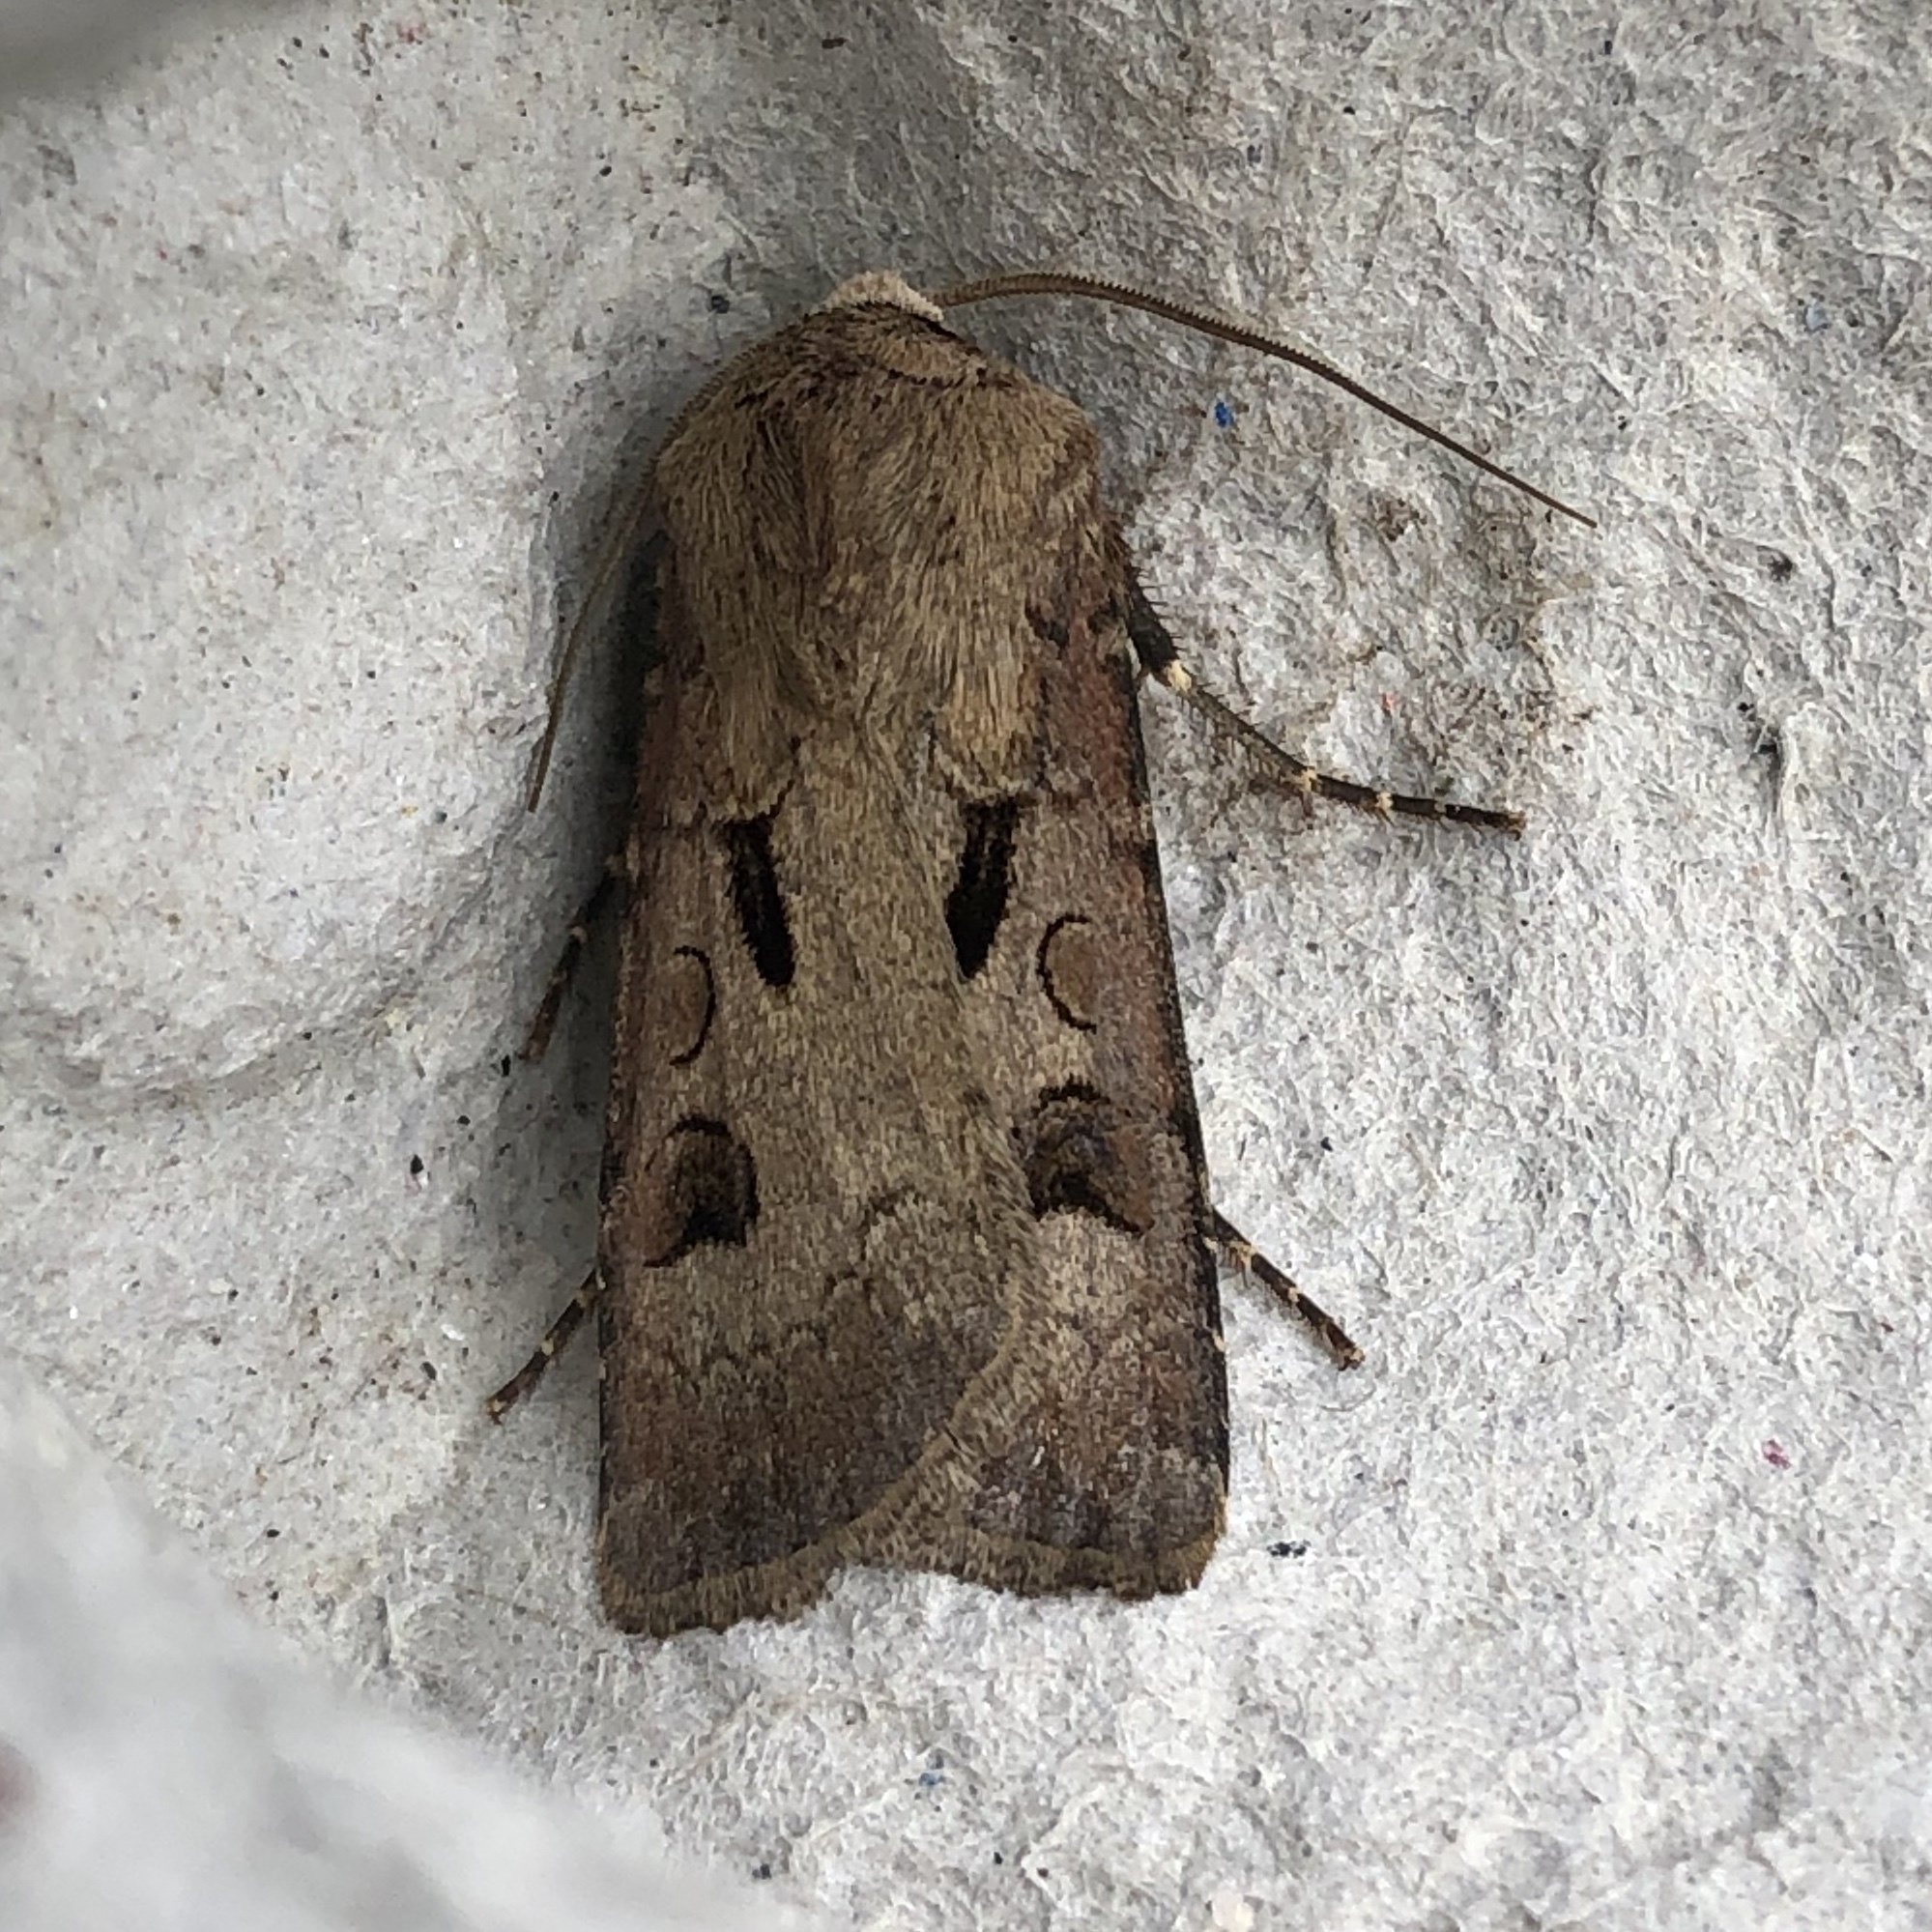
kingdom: Animalia
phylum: Arthropoda
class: Insecta
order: Lepidoptera
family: Noctuidae
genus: Agrotis
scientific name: Agrotis exclamationis
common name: Heart and dart
